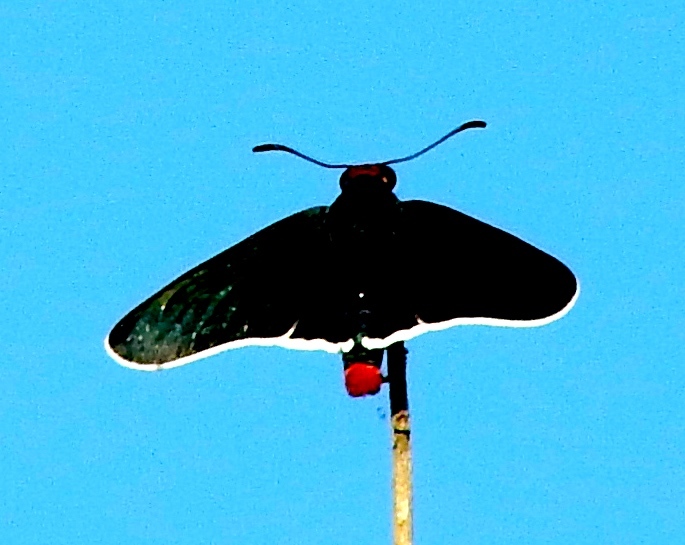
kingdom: Animalia
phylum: Arthropoda
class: Insecta
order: Lepidoptera
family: Hesperiidae
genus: Mysoria
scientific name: Mysoria affinis
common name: Red-collared firetip
